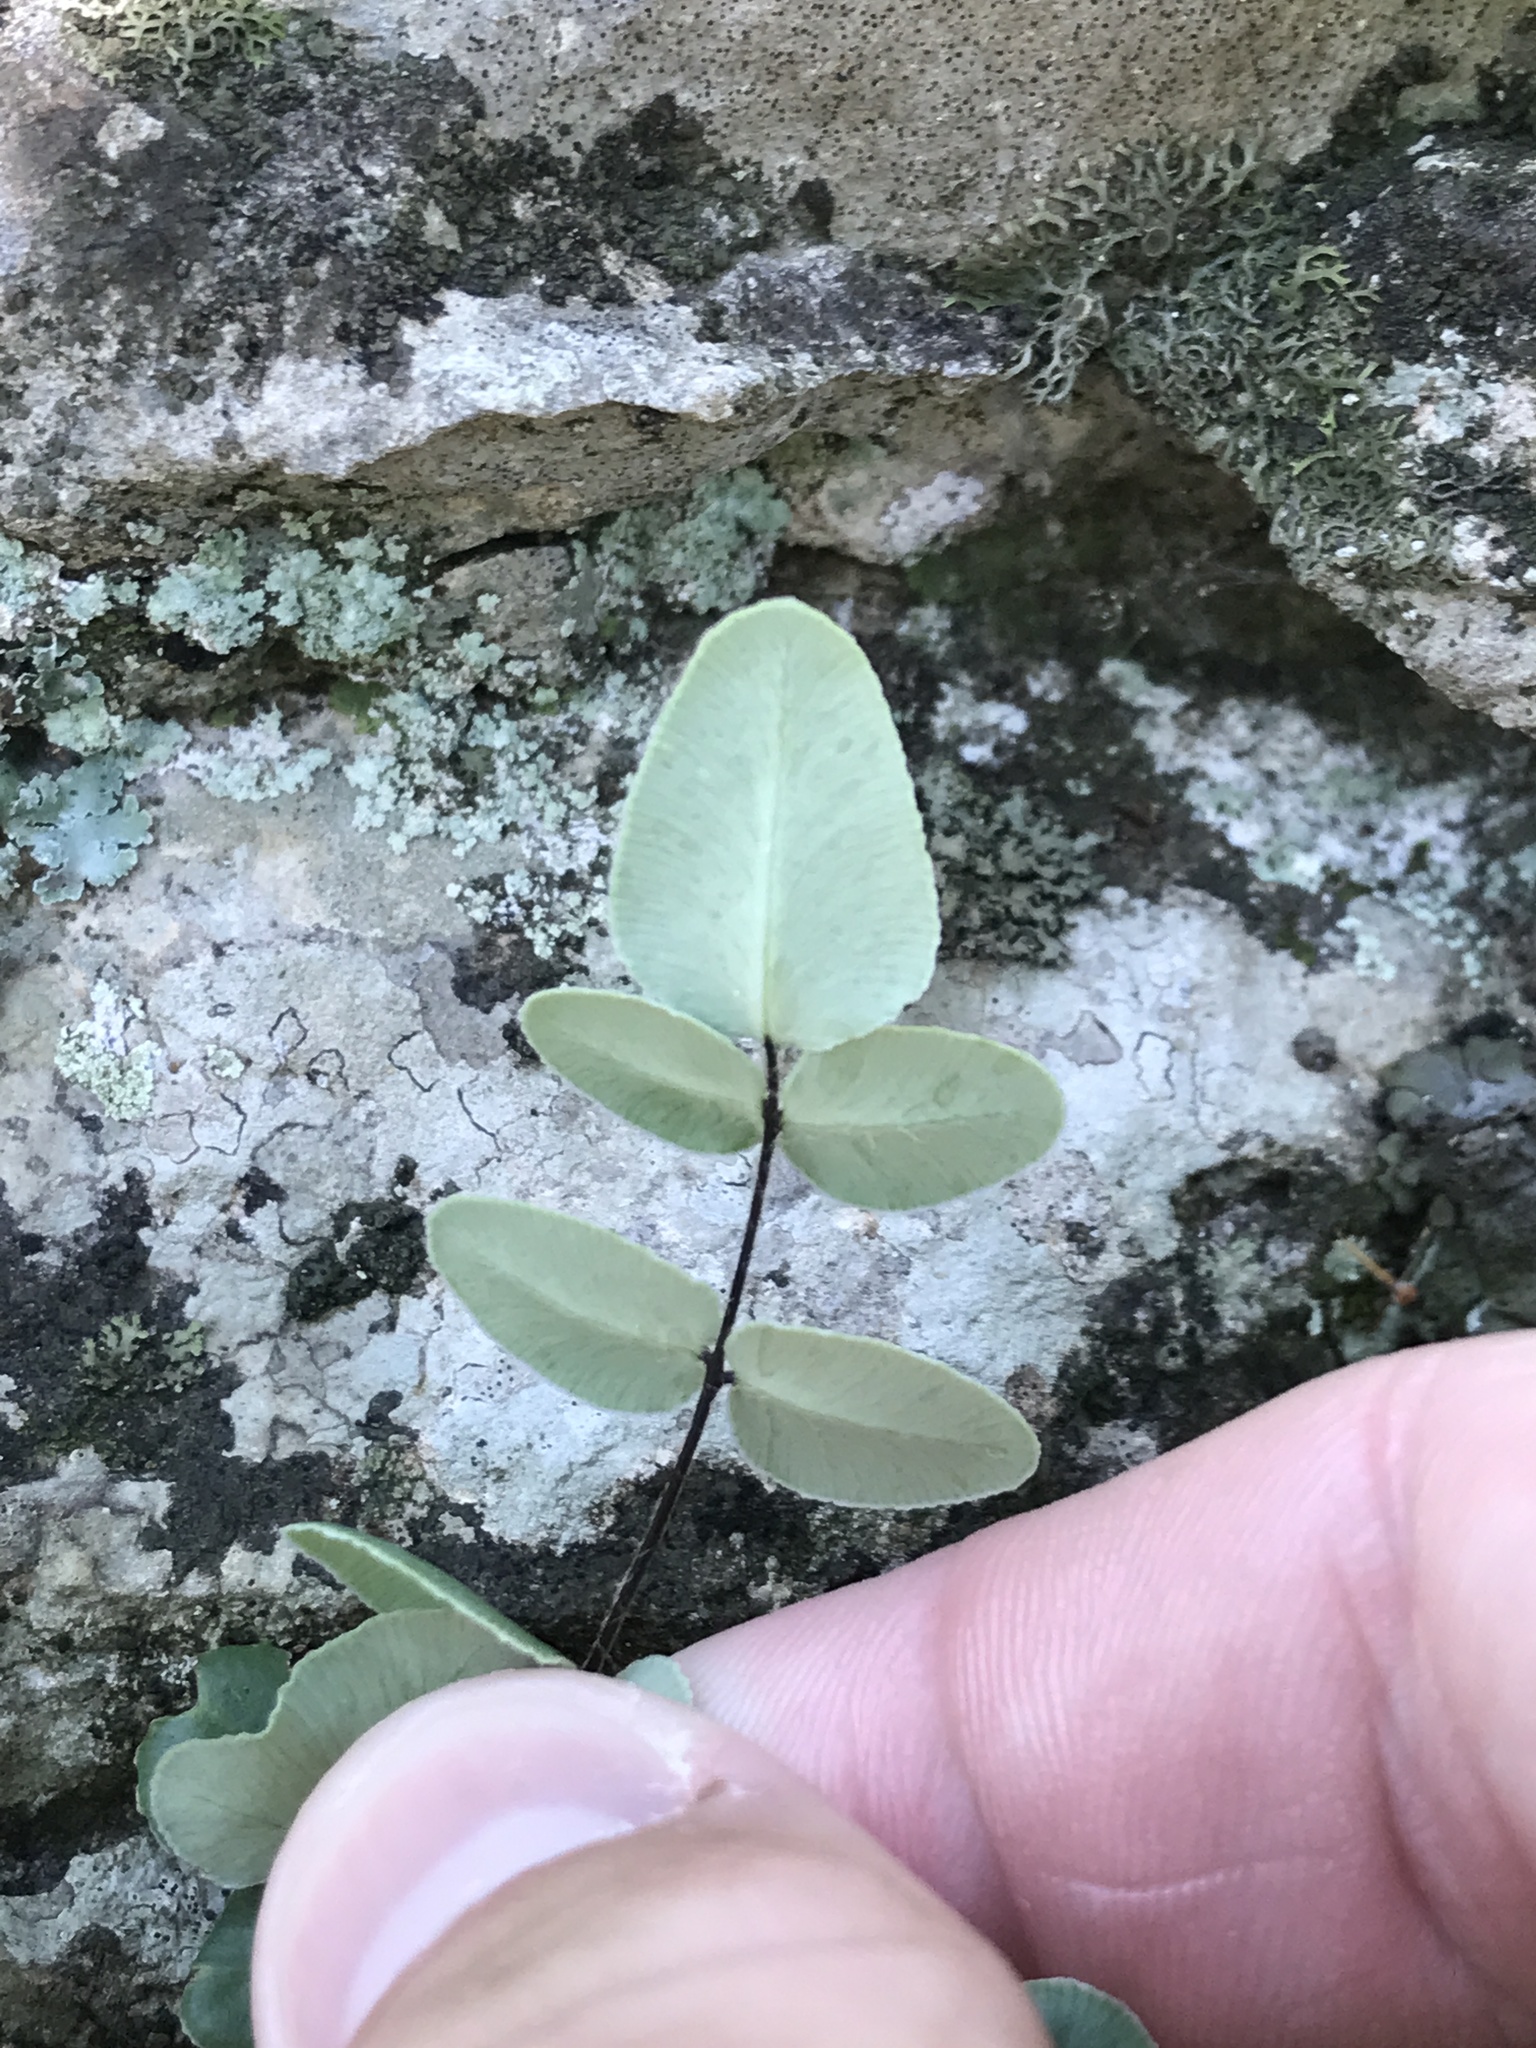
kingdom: Plantae
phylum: Tracheophyta
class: Polypodiopsida
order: Polypodiales
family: Pteridaceae
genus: Pellaea
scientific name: Pellaea atropurpurea
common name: Hairy cliffbrake
